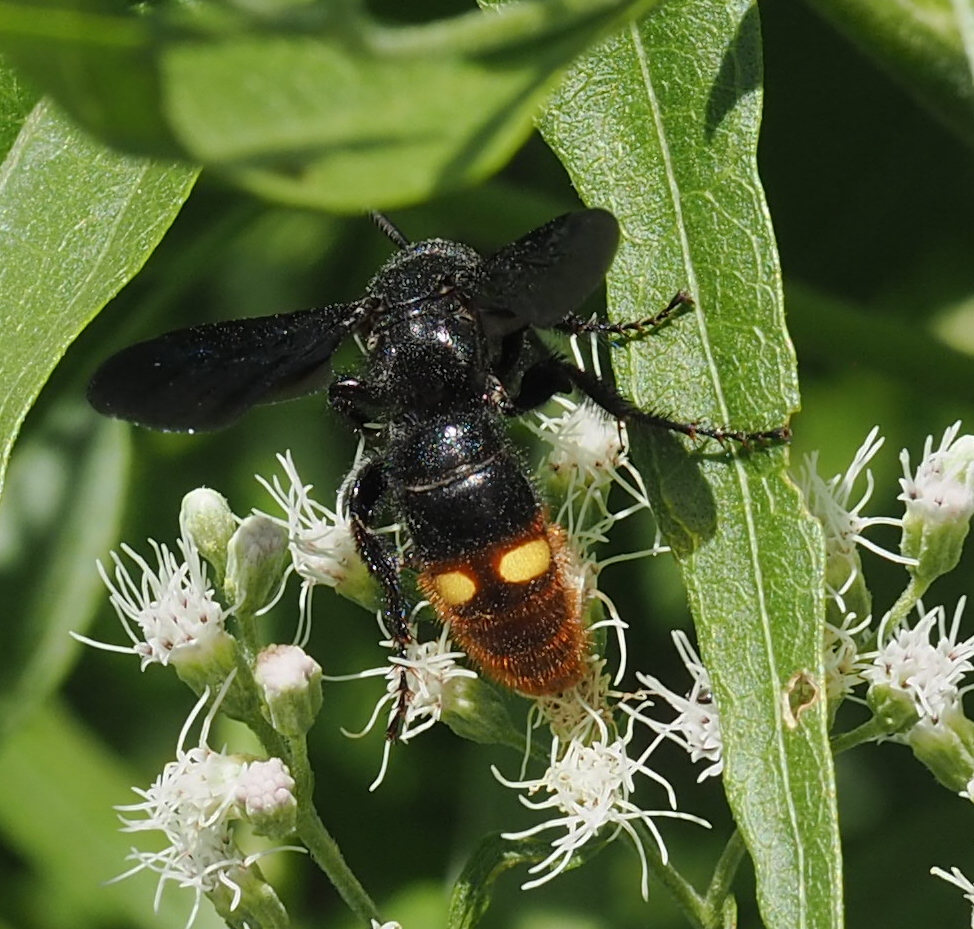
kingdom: Animalia
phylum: Arthropoda
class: Insecta
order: Hymenoptera
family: Scoliidae
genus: Scolia
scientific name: Scolia dubia
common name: Blue-winged scoliid wasp
